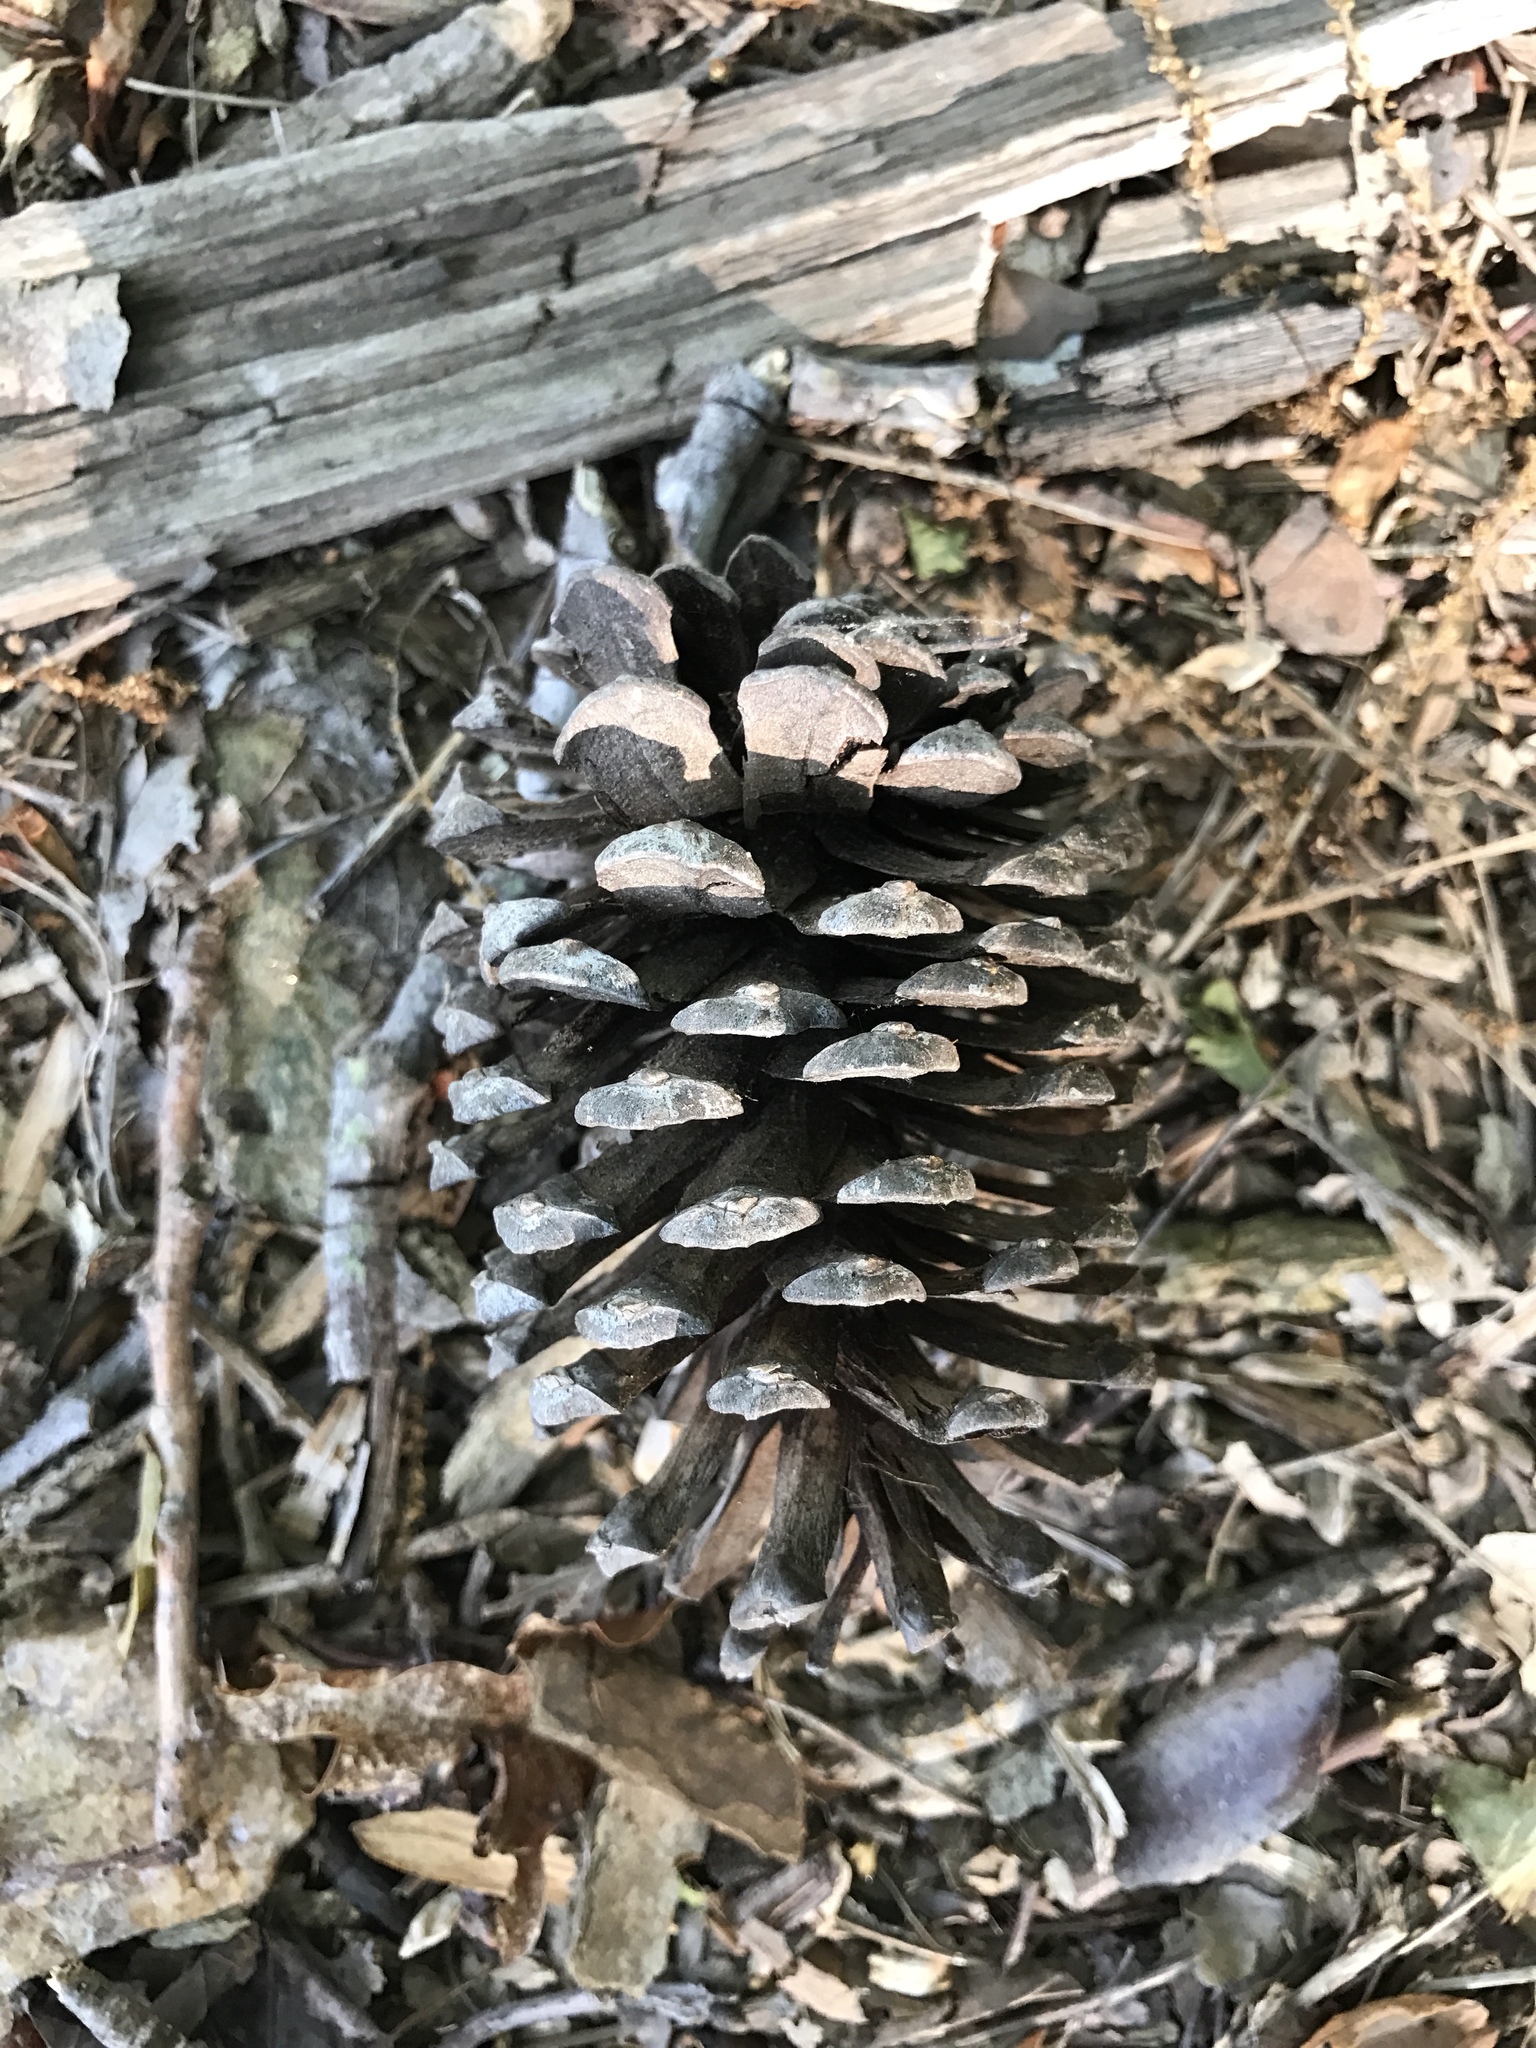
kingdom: Plantae
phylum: Tracheophyta
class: Pinopsida
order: Pinales
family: Pinaceae
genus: Pinus
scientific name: Pinus taeda
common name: Loblolly pine
